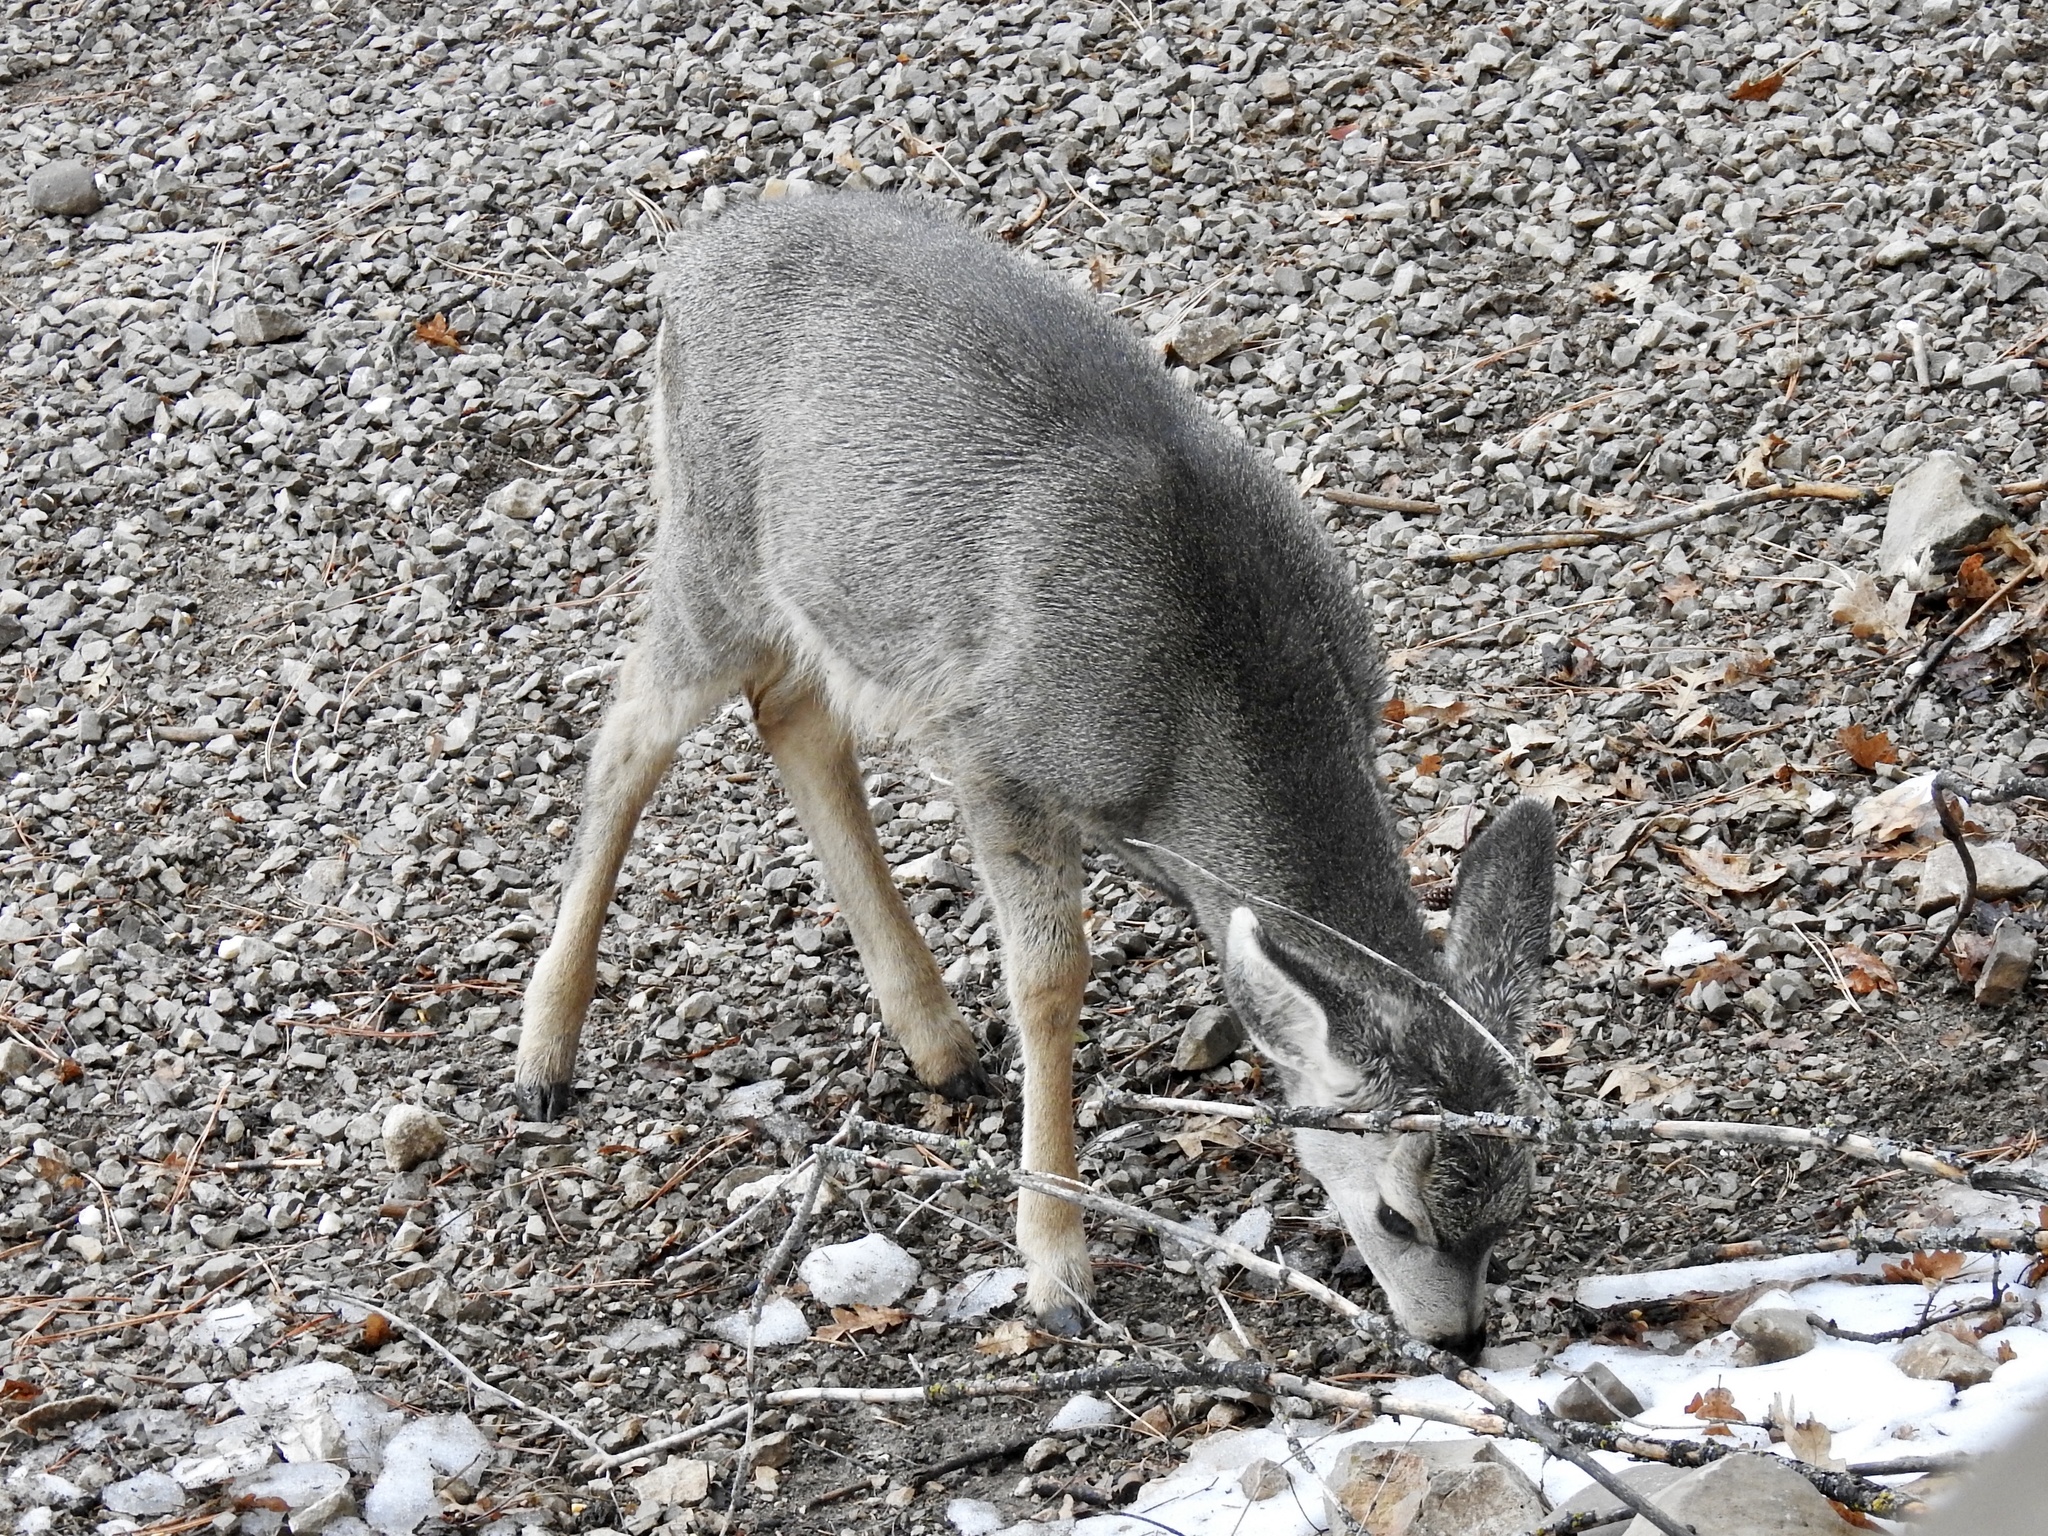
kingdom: Animalia
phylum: Chordata
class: Mammalia
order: Artiodactyla
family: Cervidae
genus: Odocoileus
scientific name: Odocoileus hemionus
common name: Mule deer
